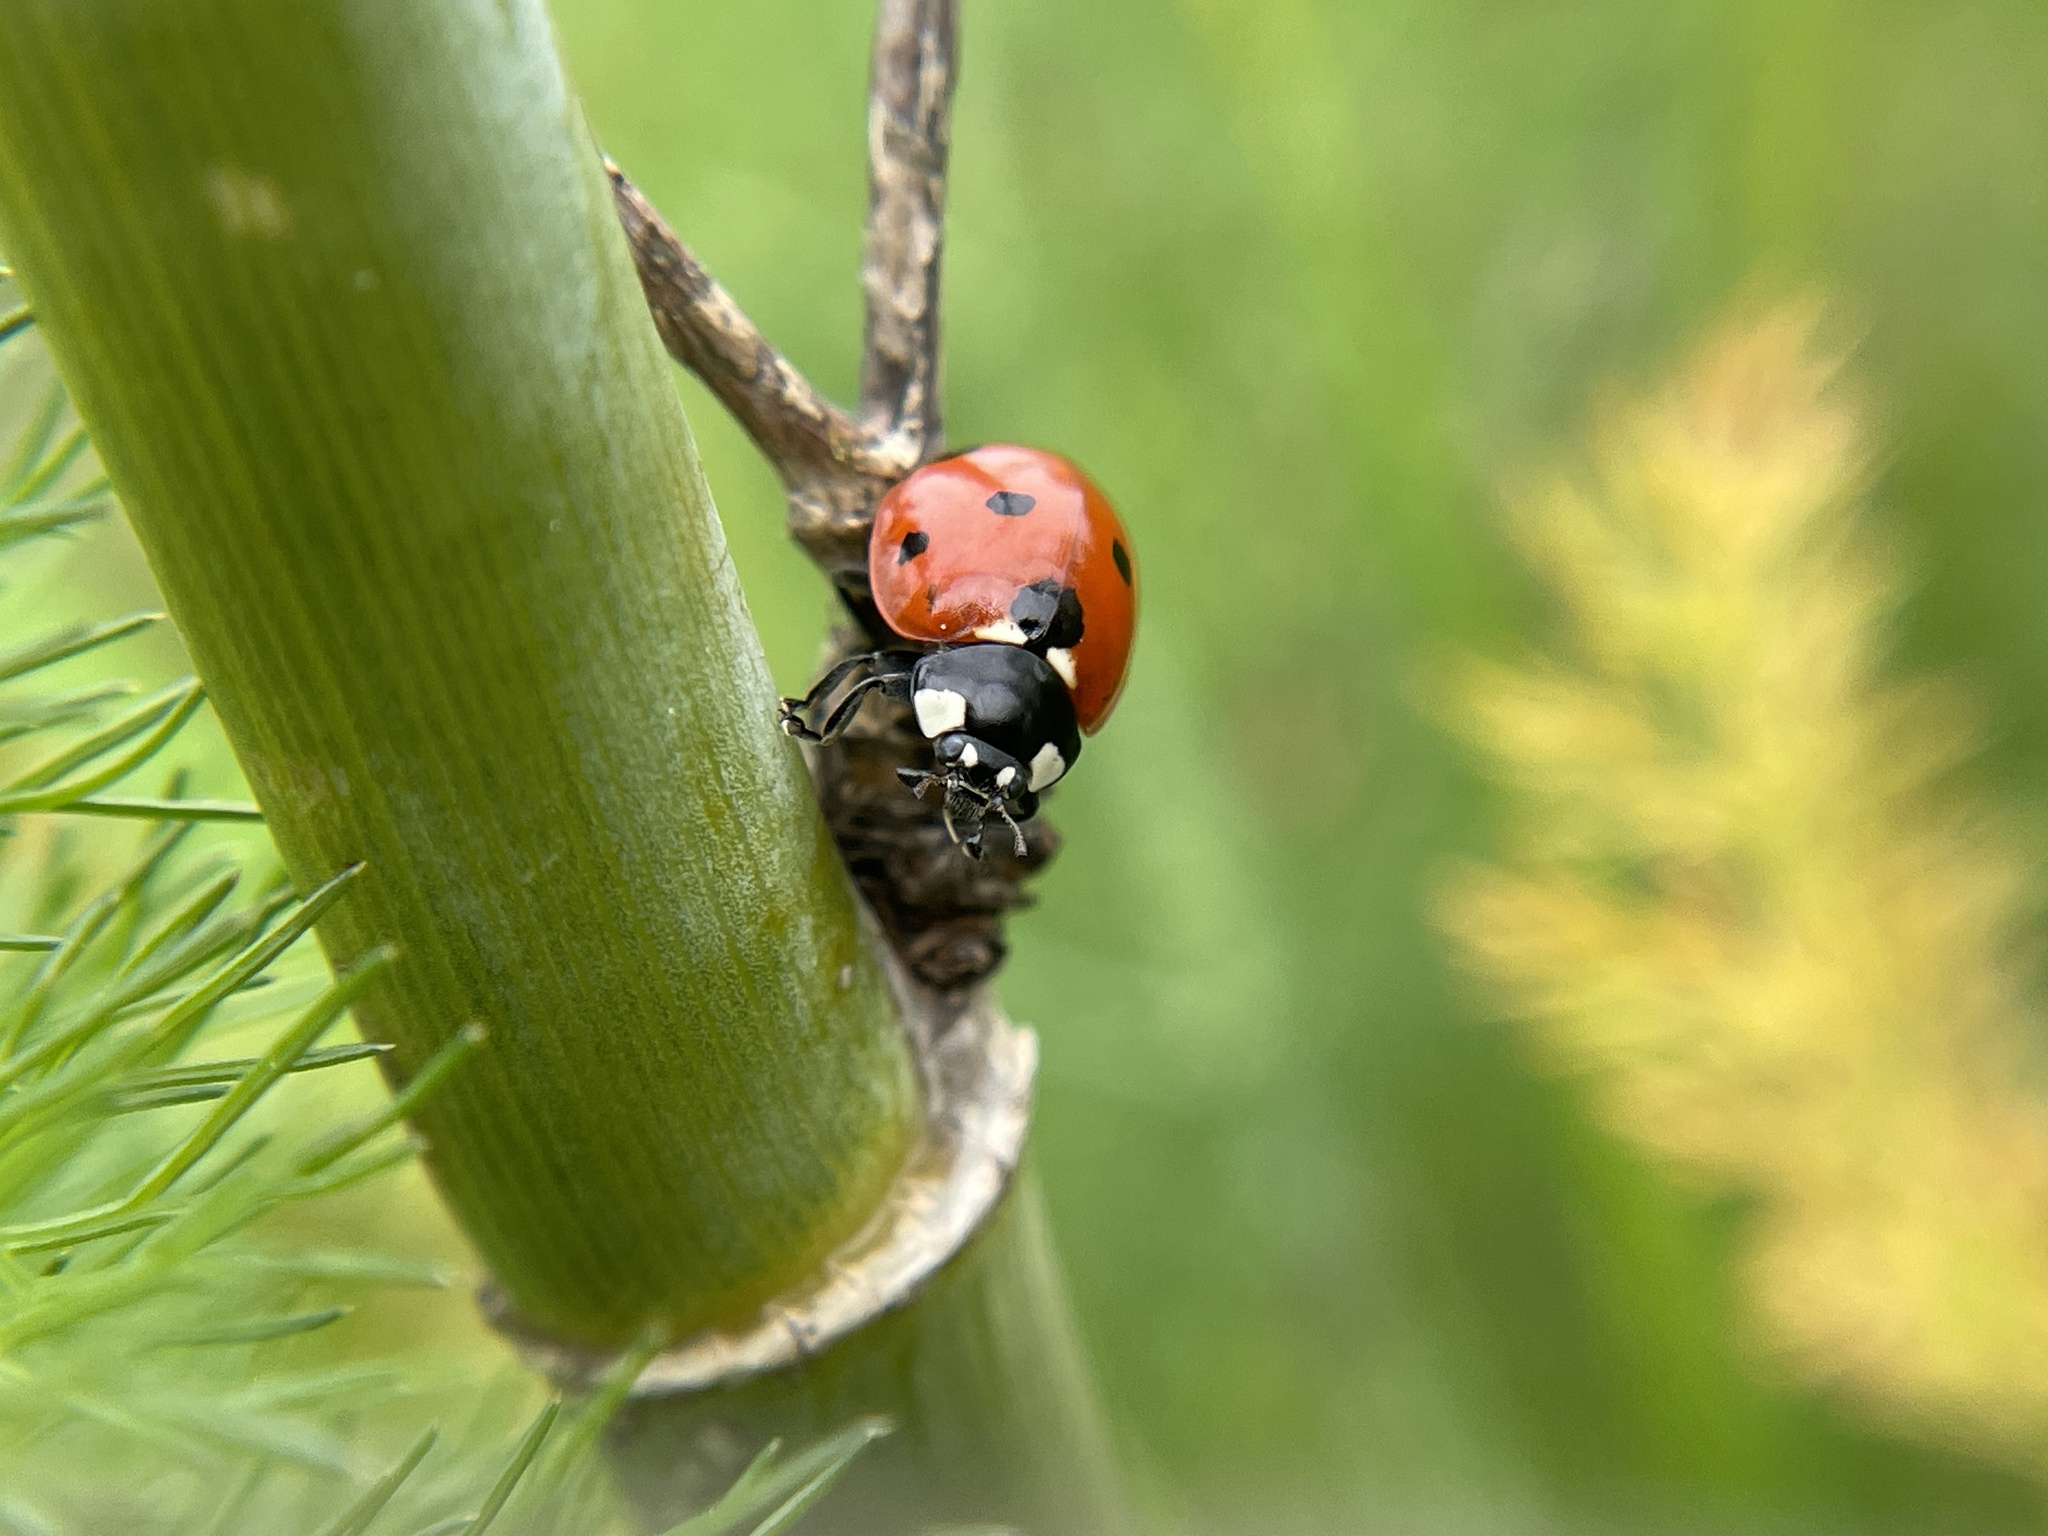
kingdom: Animalia
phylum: Arthropoda
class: Insecta
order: Coleoptera
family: Coccinellidae
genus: Coccinella
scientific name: Coccinella septempunctata
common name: Sevenspotted lady beetle
